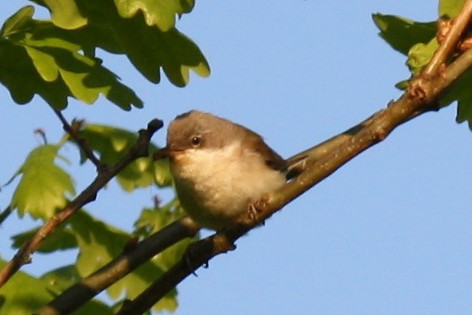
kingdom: Animalia
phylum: Chordata
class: Aves
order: Passeriformes
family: Sylviidae
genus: Sylvia
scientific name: Sylvia curruca
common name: Lesser whitethroat
